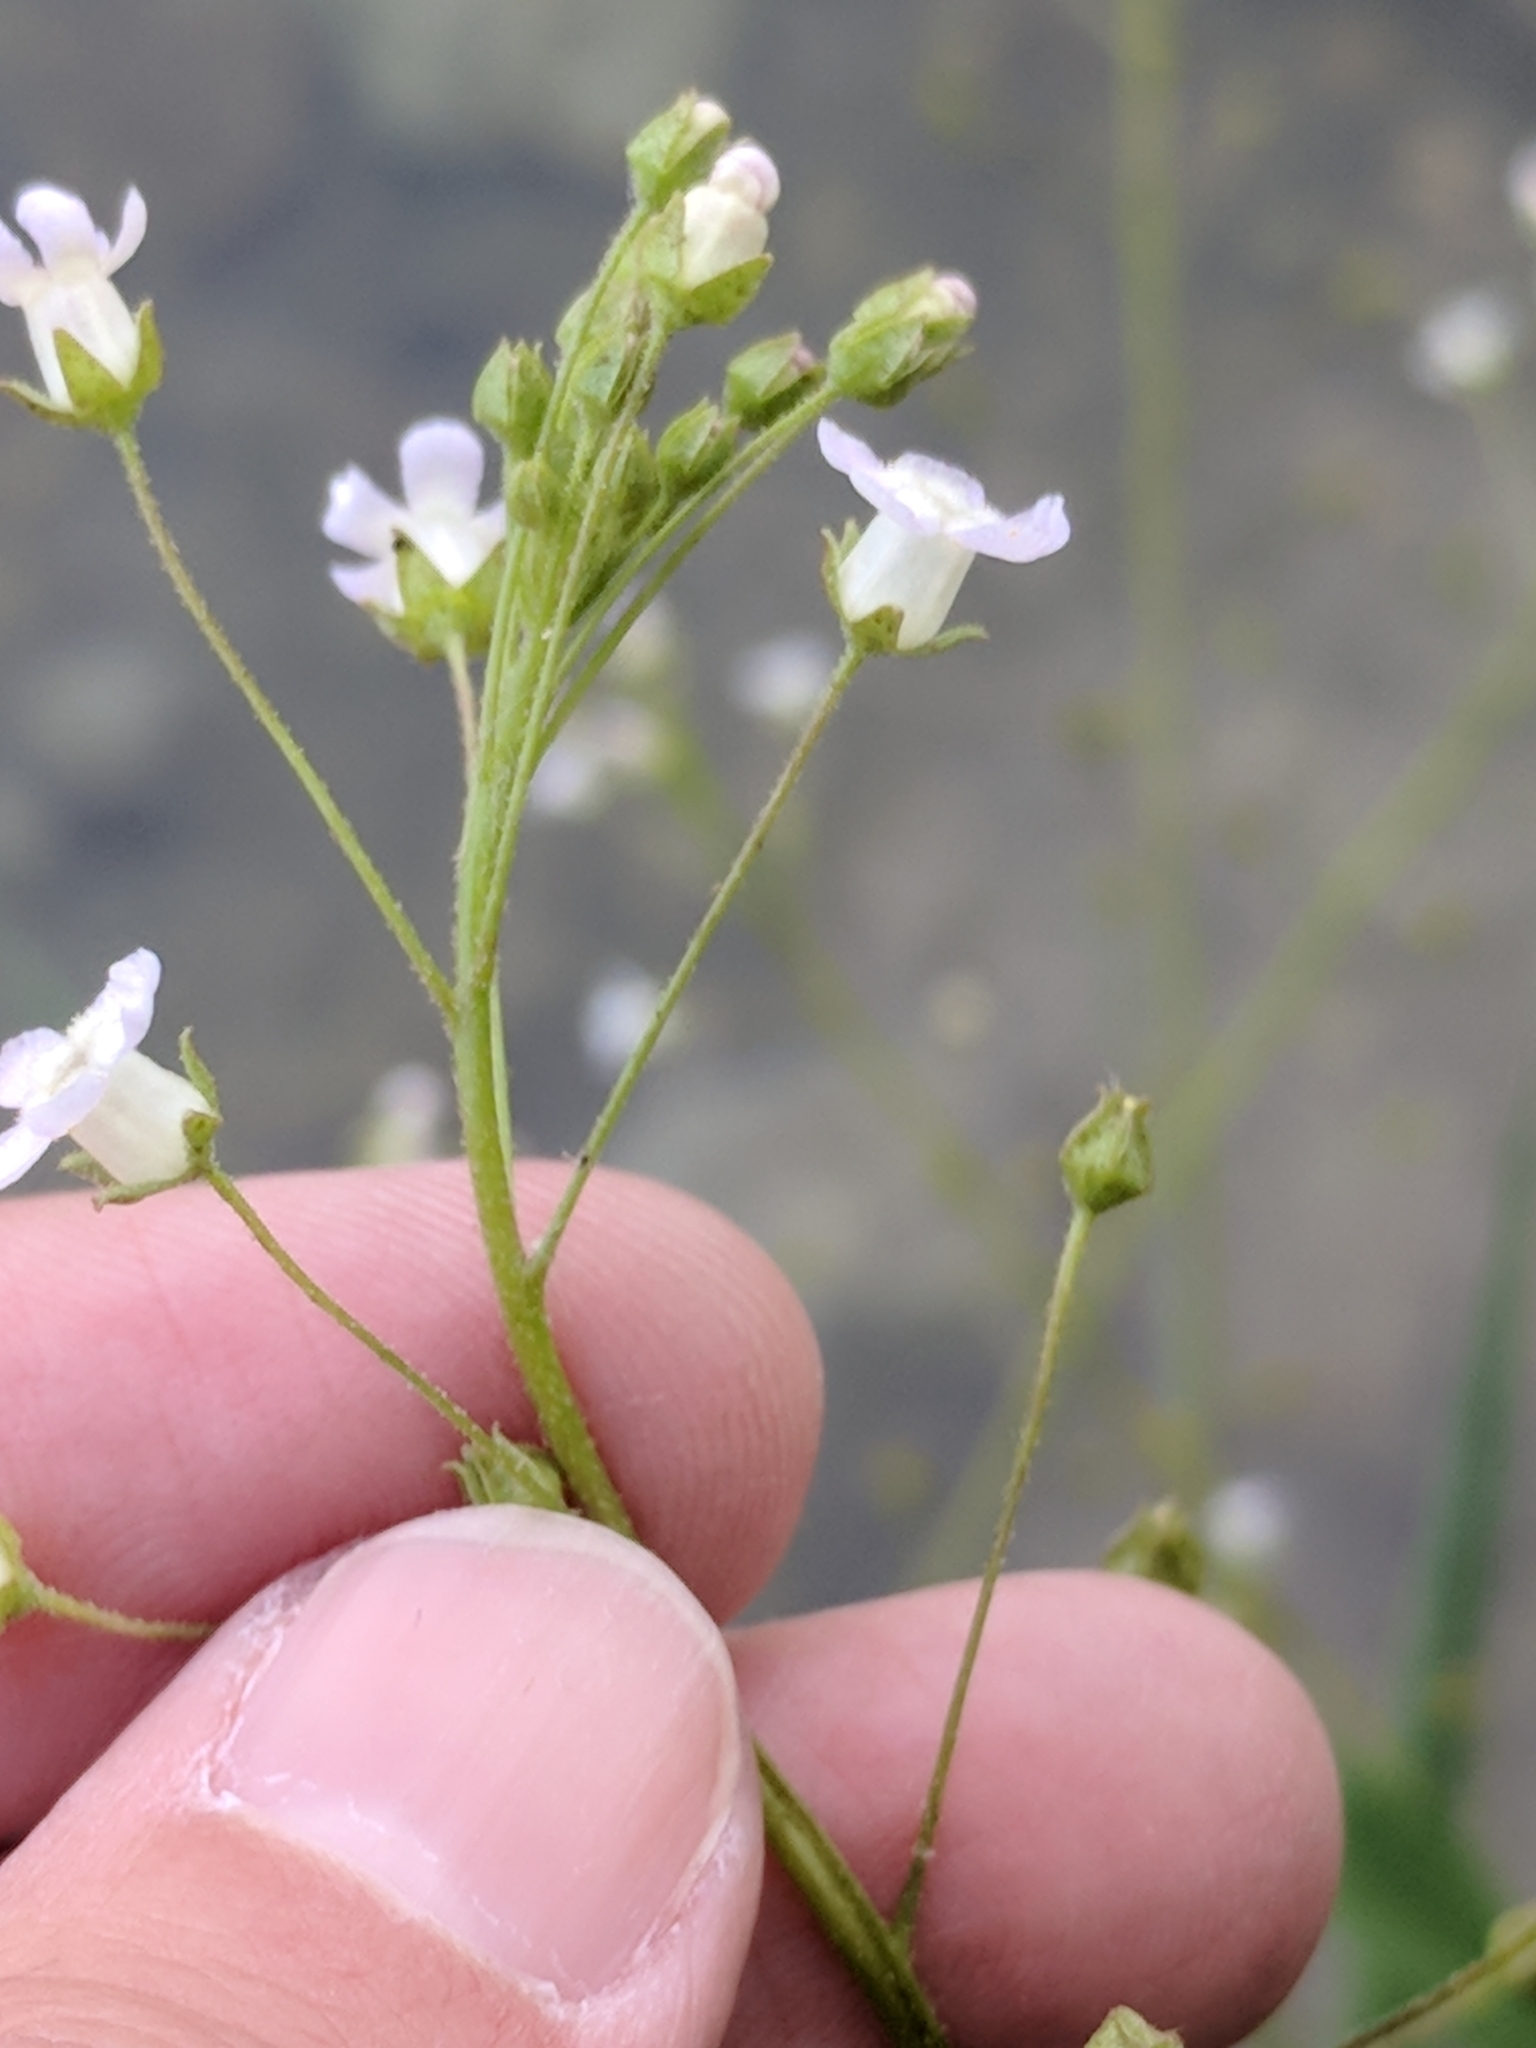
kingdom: Plantae
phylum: Tracheophyta
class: Magnoliopsida
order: Ericales
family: Primulaceae
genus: Samolus
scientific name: Samolus ebracteatus
